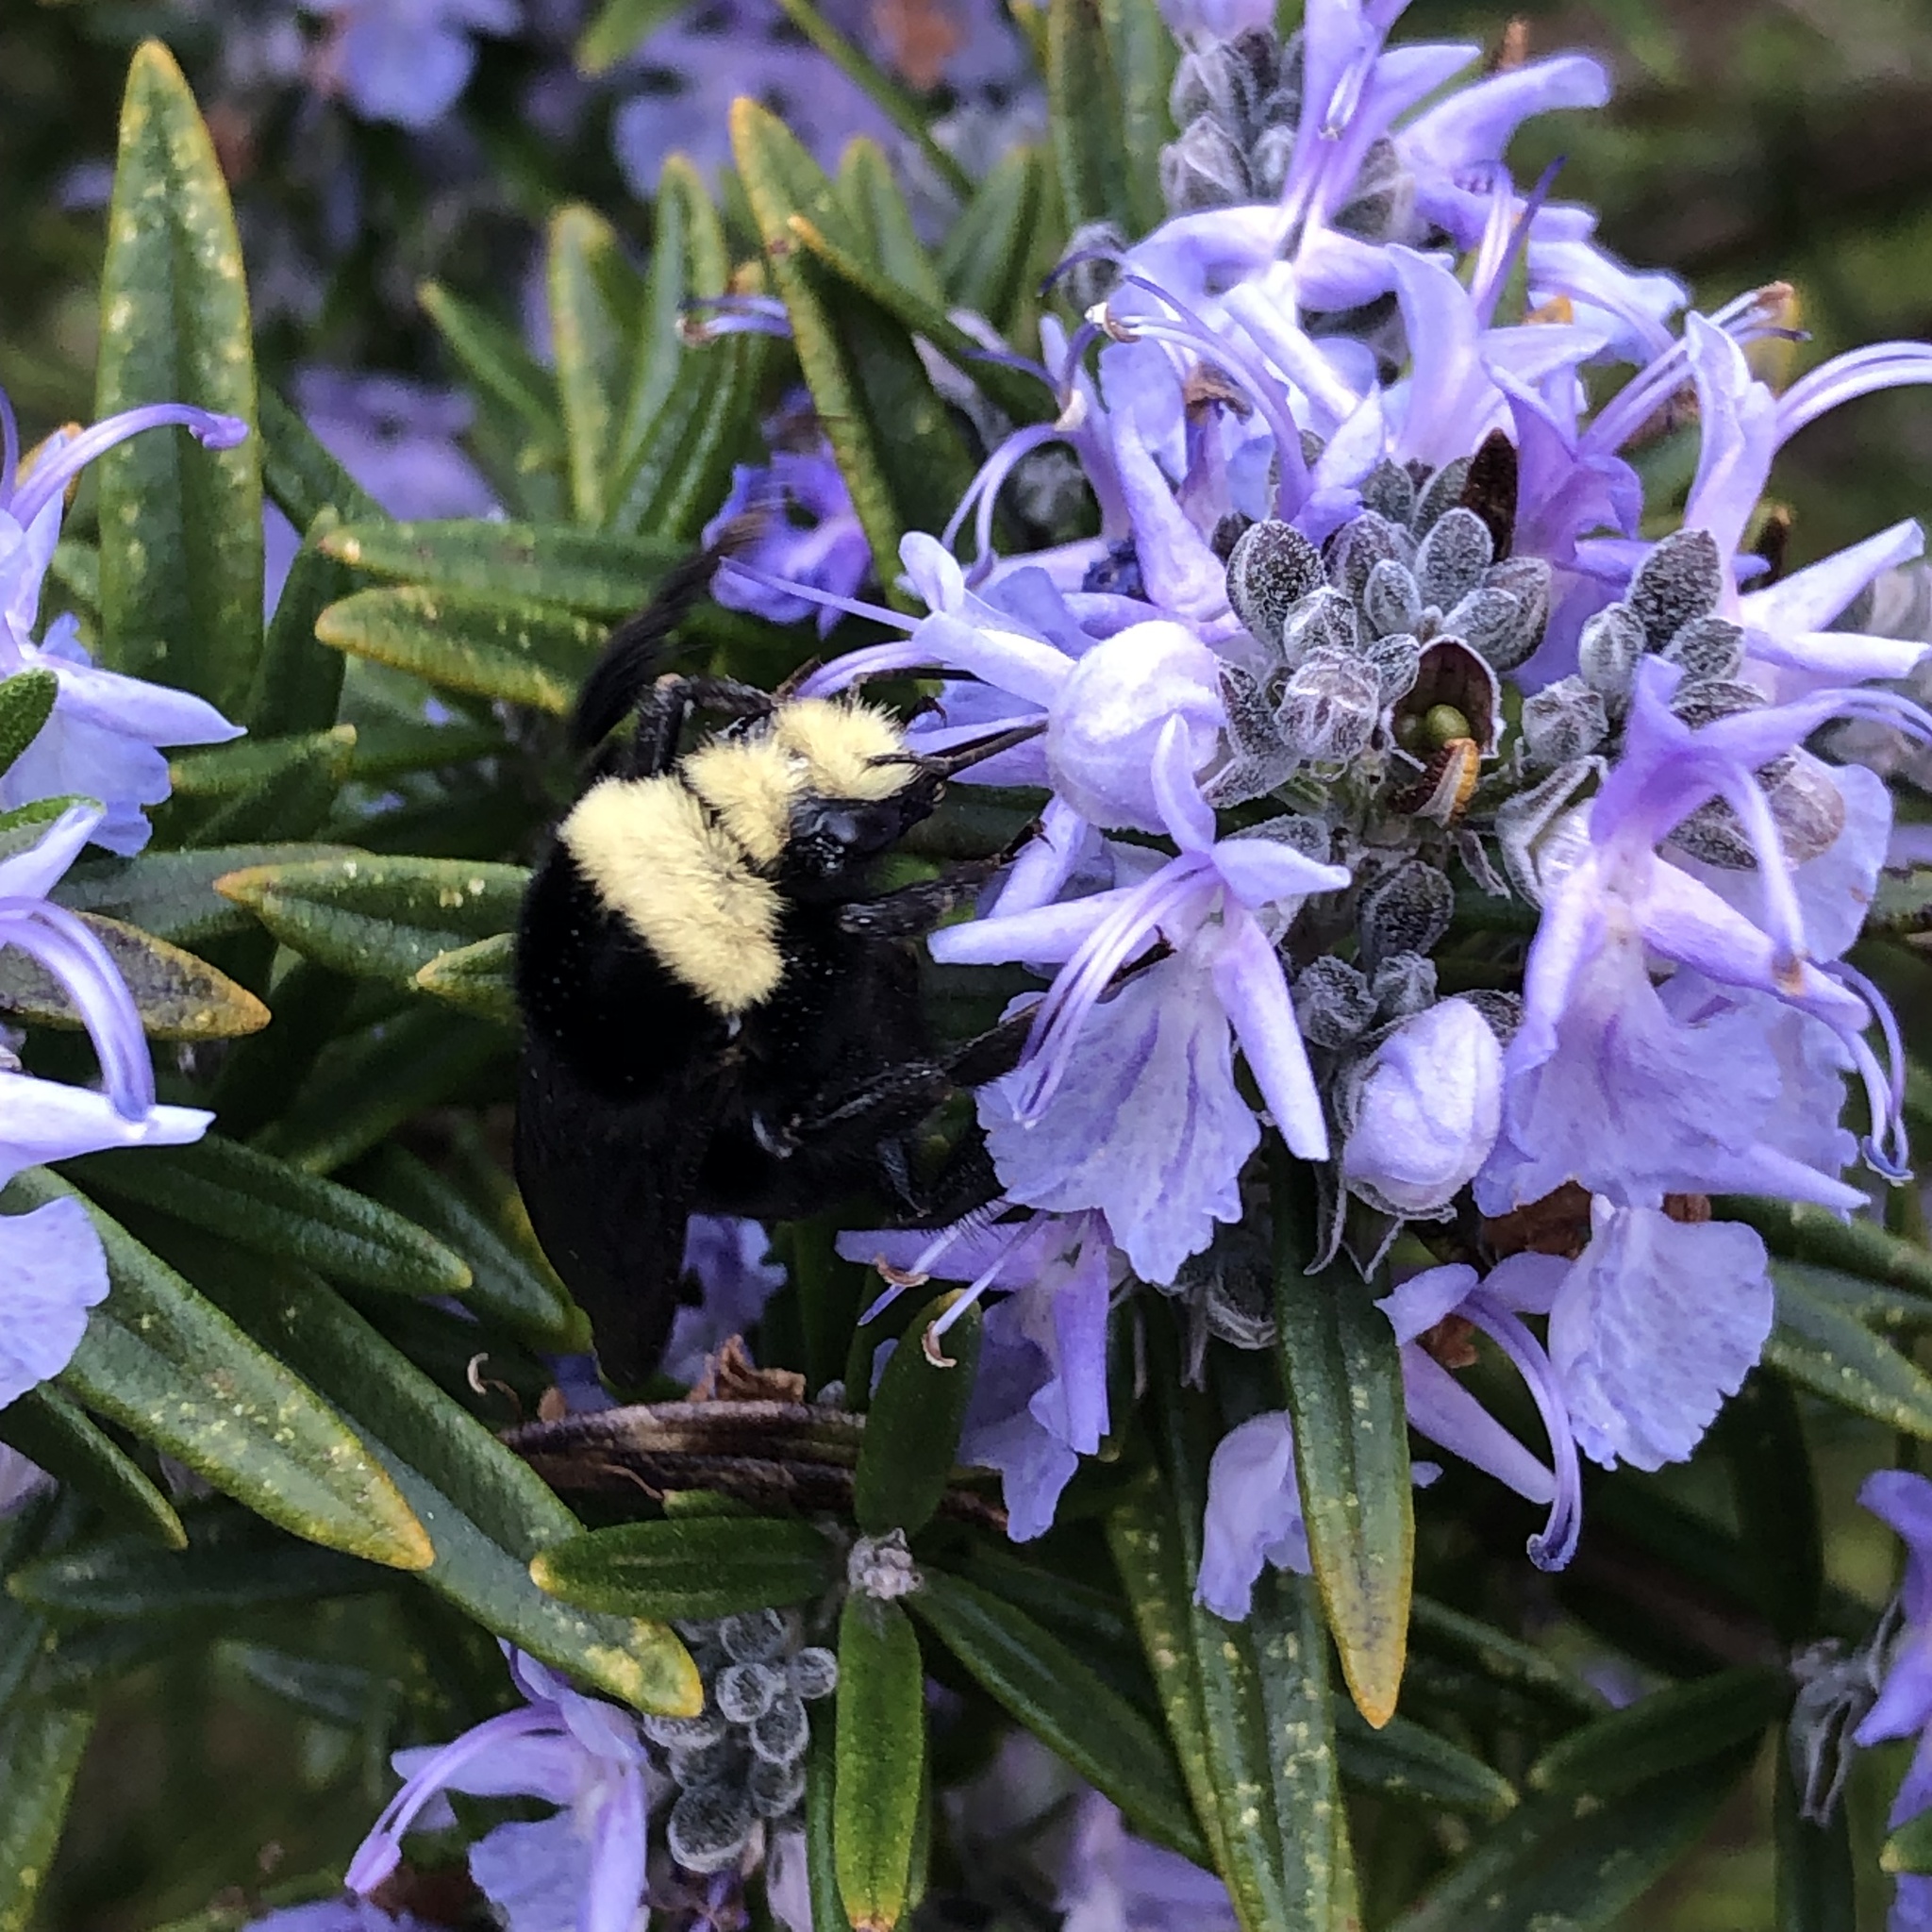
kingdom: Animalia
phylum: Arthropoda
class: Insecta
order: Hymenoptera
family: Apidae
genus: Bombus
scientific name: Bombus vosnesenskii
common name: Vosnesensky bumble bee
